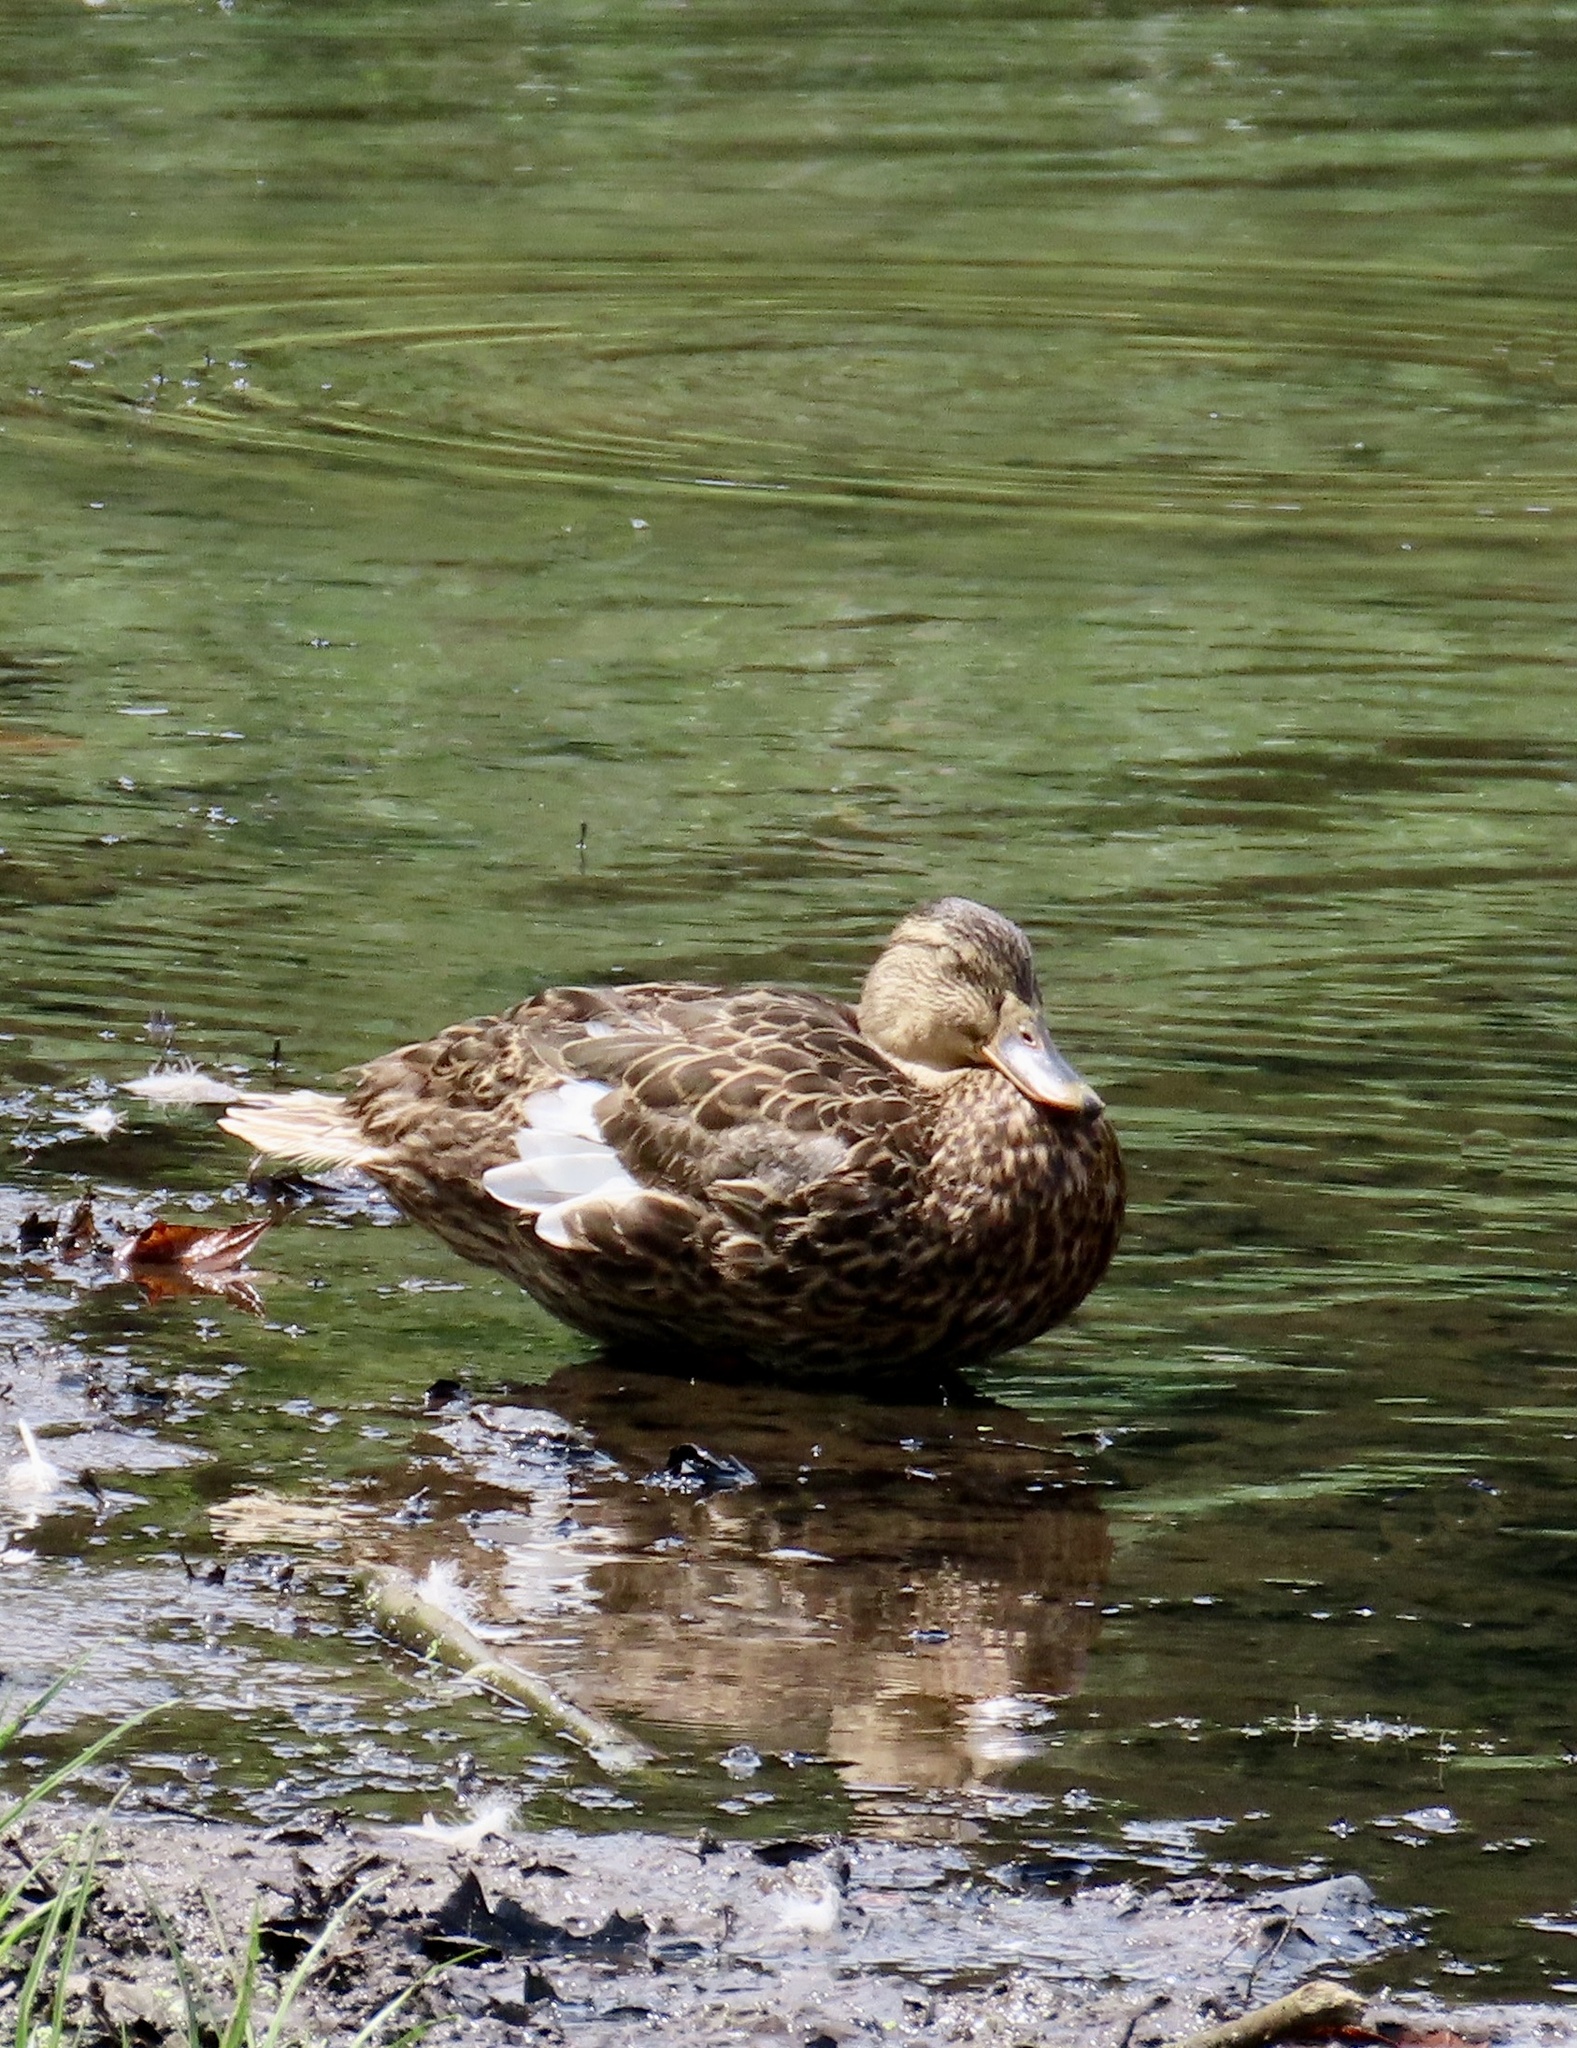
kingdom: Animalia
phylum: Chordata
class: Aves
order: Anseriformes
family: Anatidae
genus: Anas
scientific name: Anas platyrhynchos
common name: Mallard
